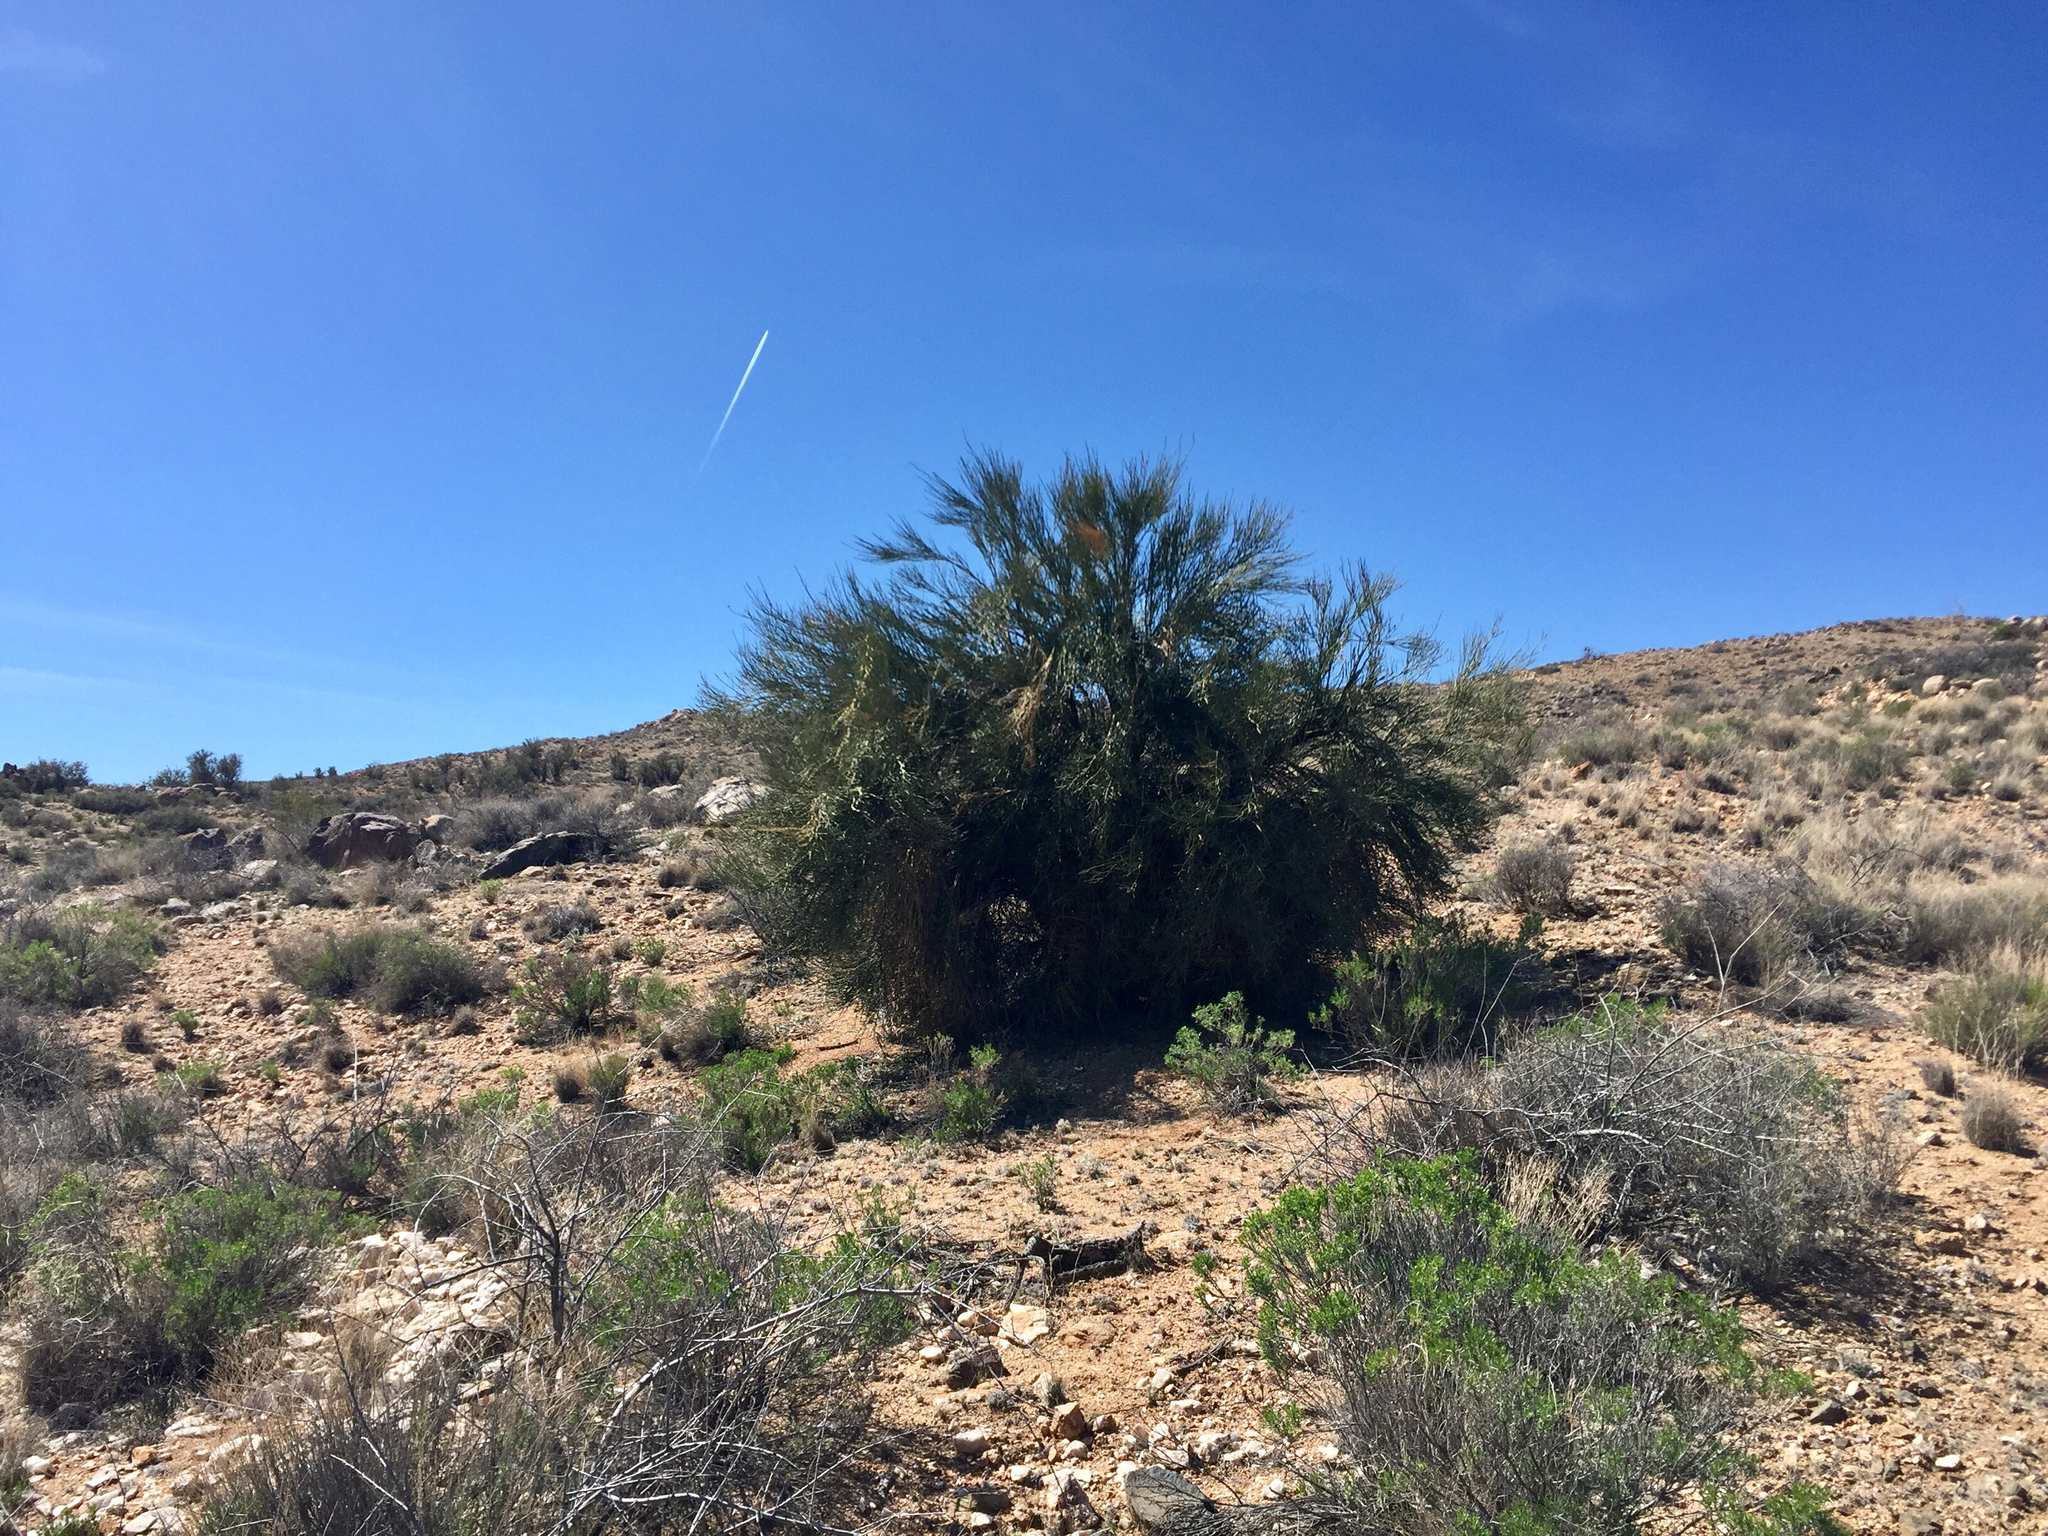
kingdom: Plantae
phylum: Tracheophyta
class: Magnoliopsida
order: Celastrales
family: Celastraceae
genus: Canotia
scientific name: Canotia holacantha
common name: Crucifixion thorns
